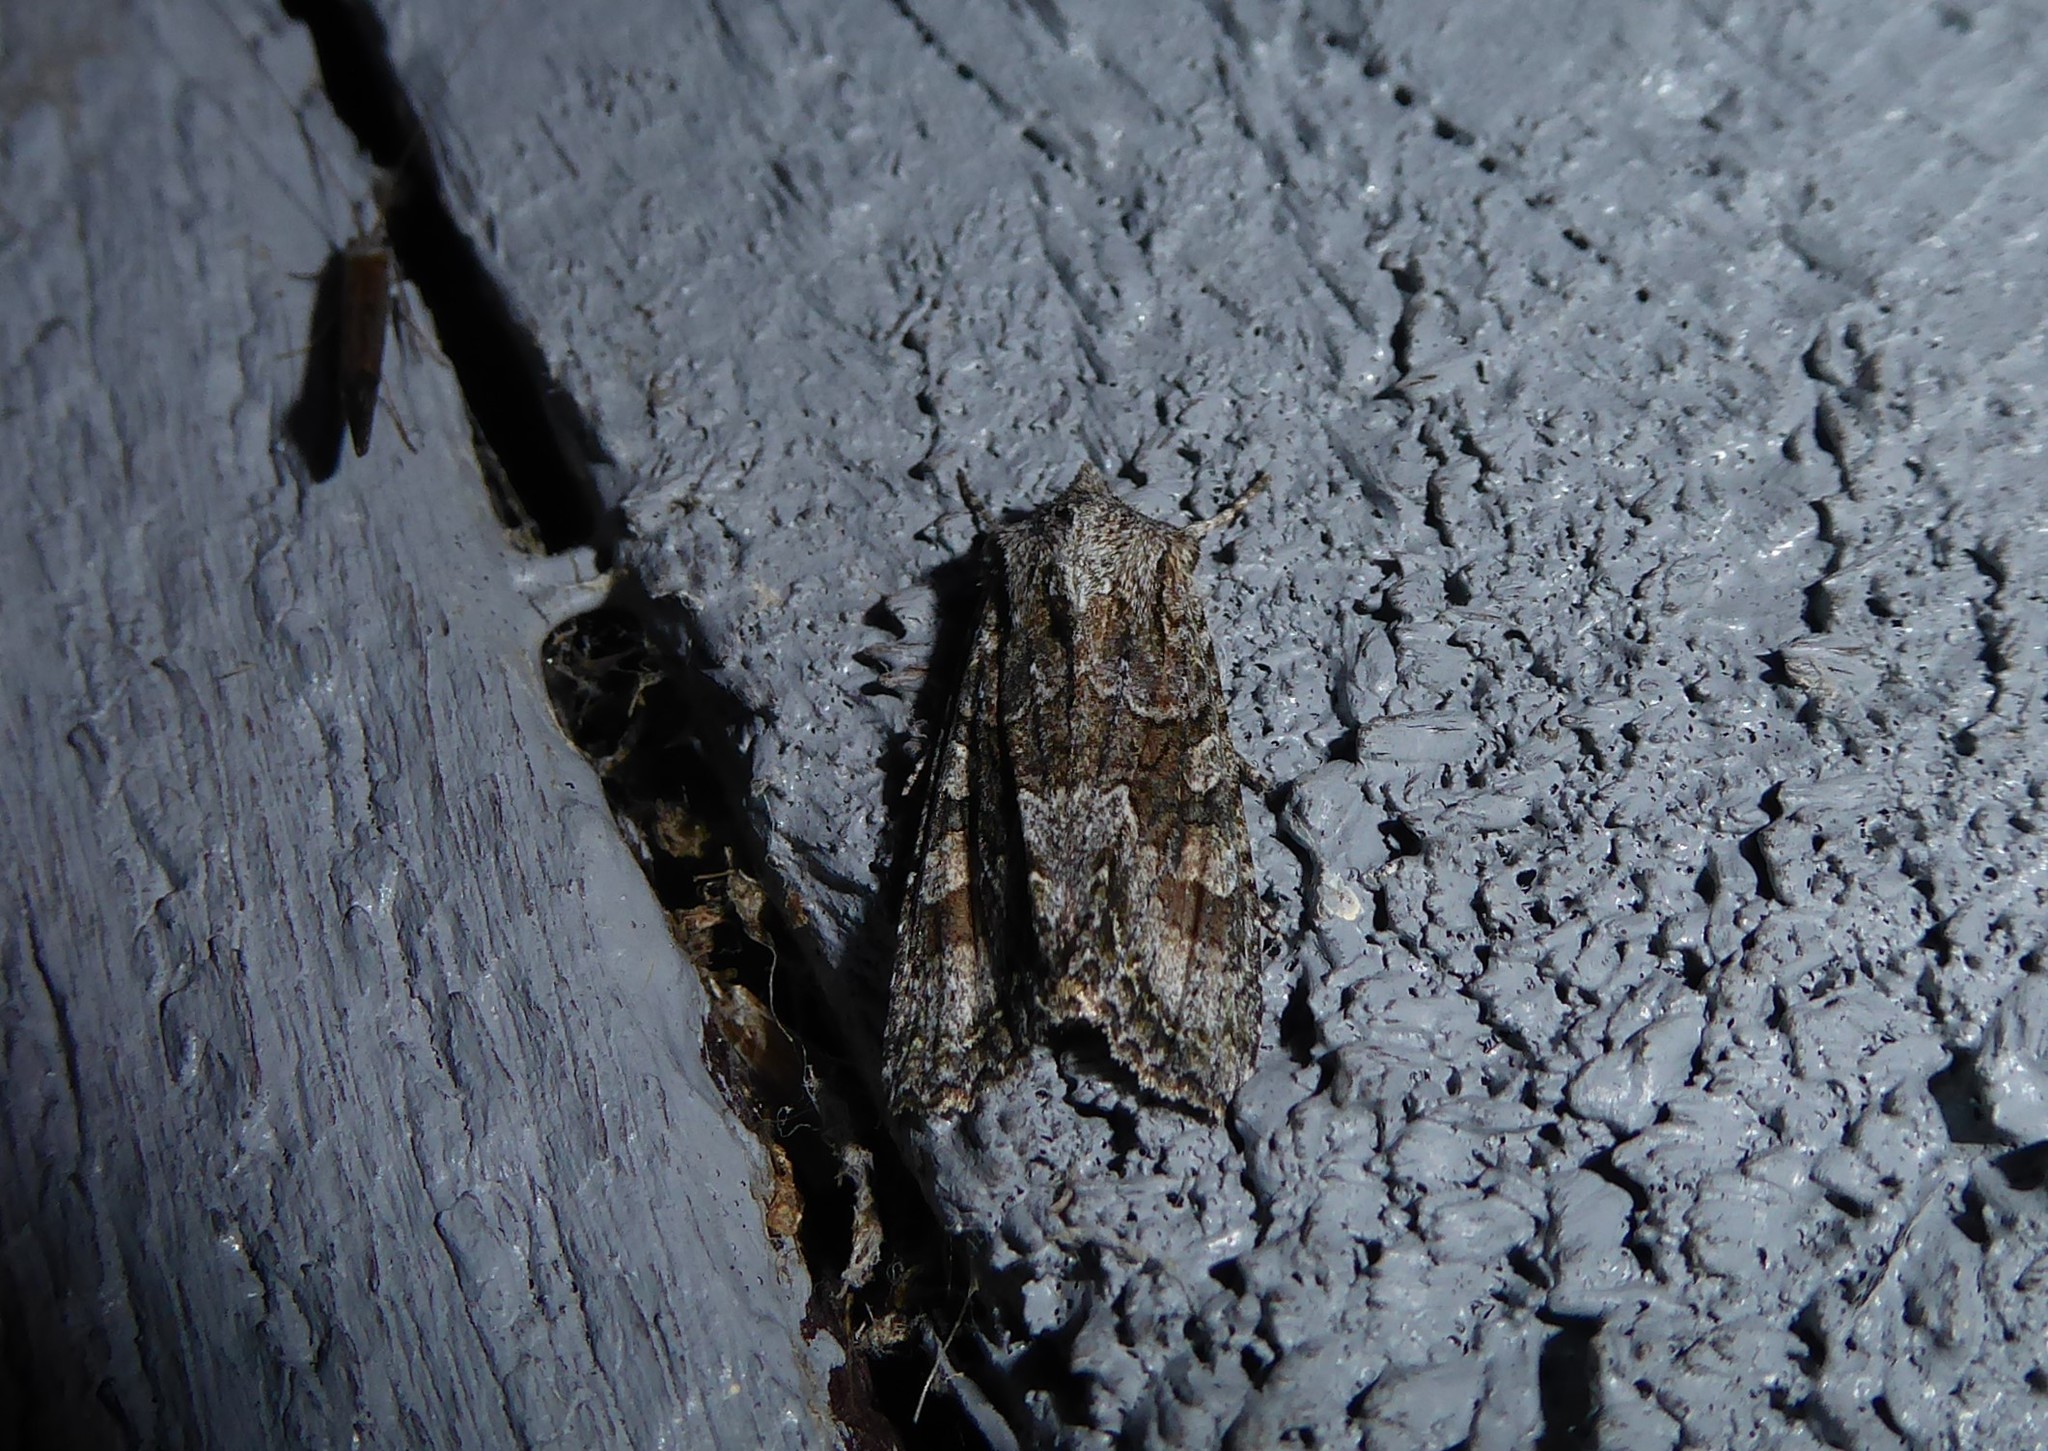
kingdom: Animalia
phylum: Arthropoda
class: Insecta
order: Lepidoptera
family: Noctuidae
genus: Ichneutica
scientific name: Ichneutica mutans
